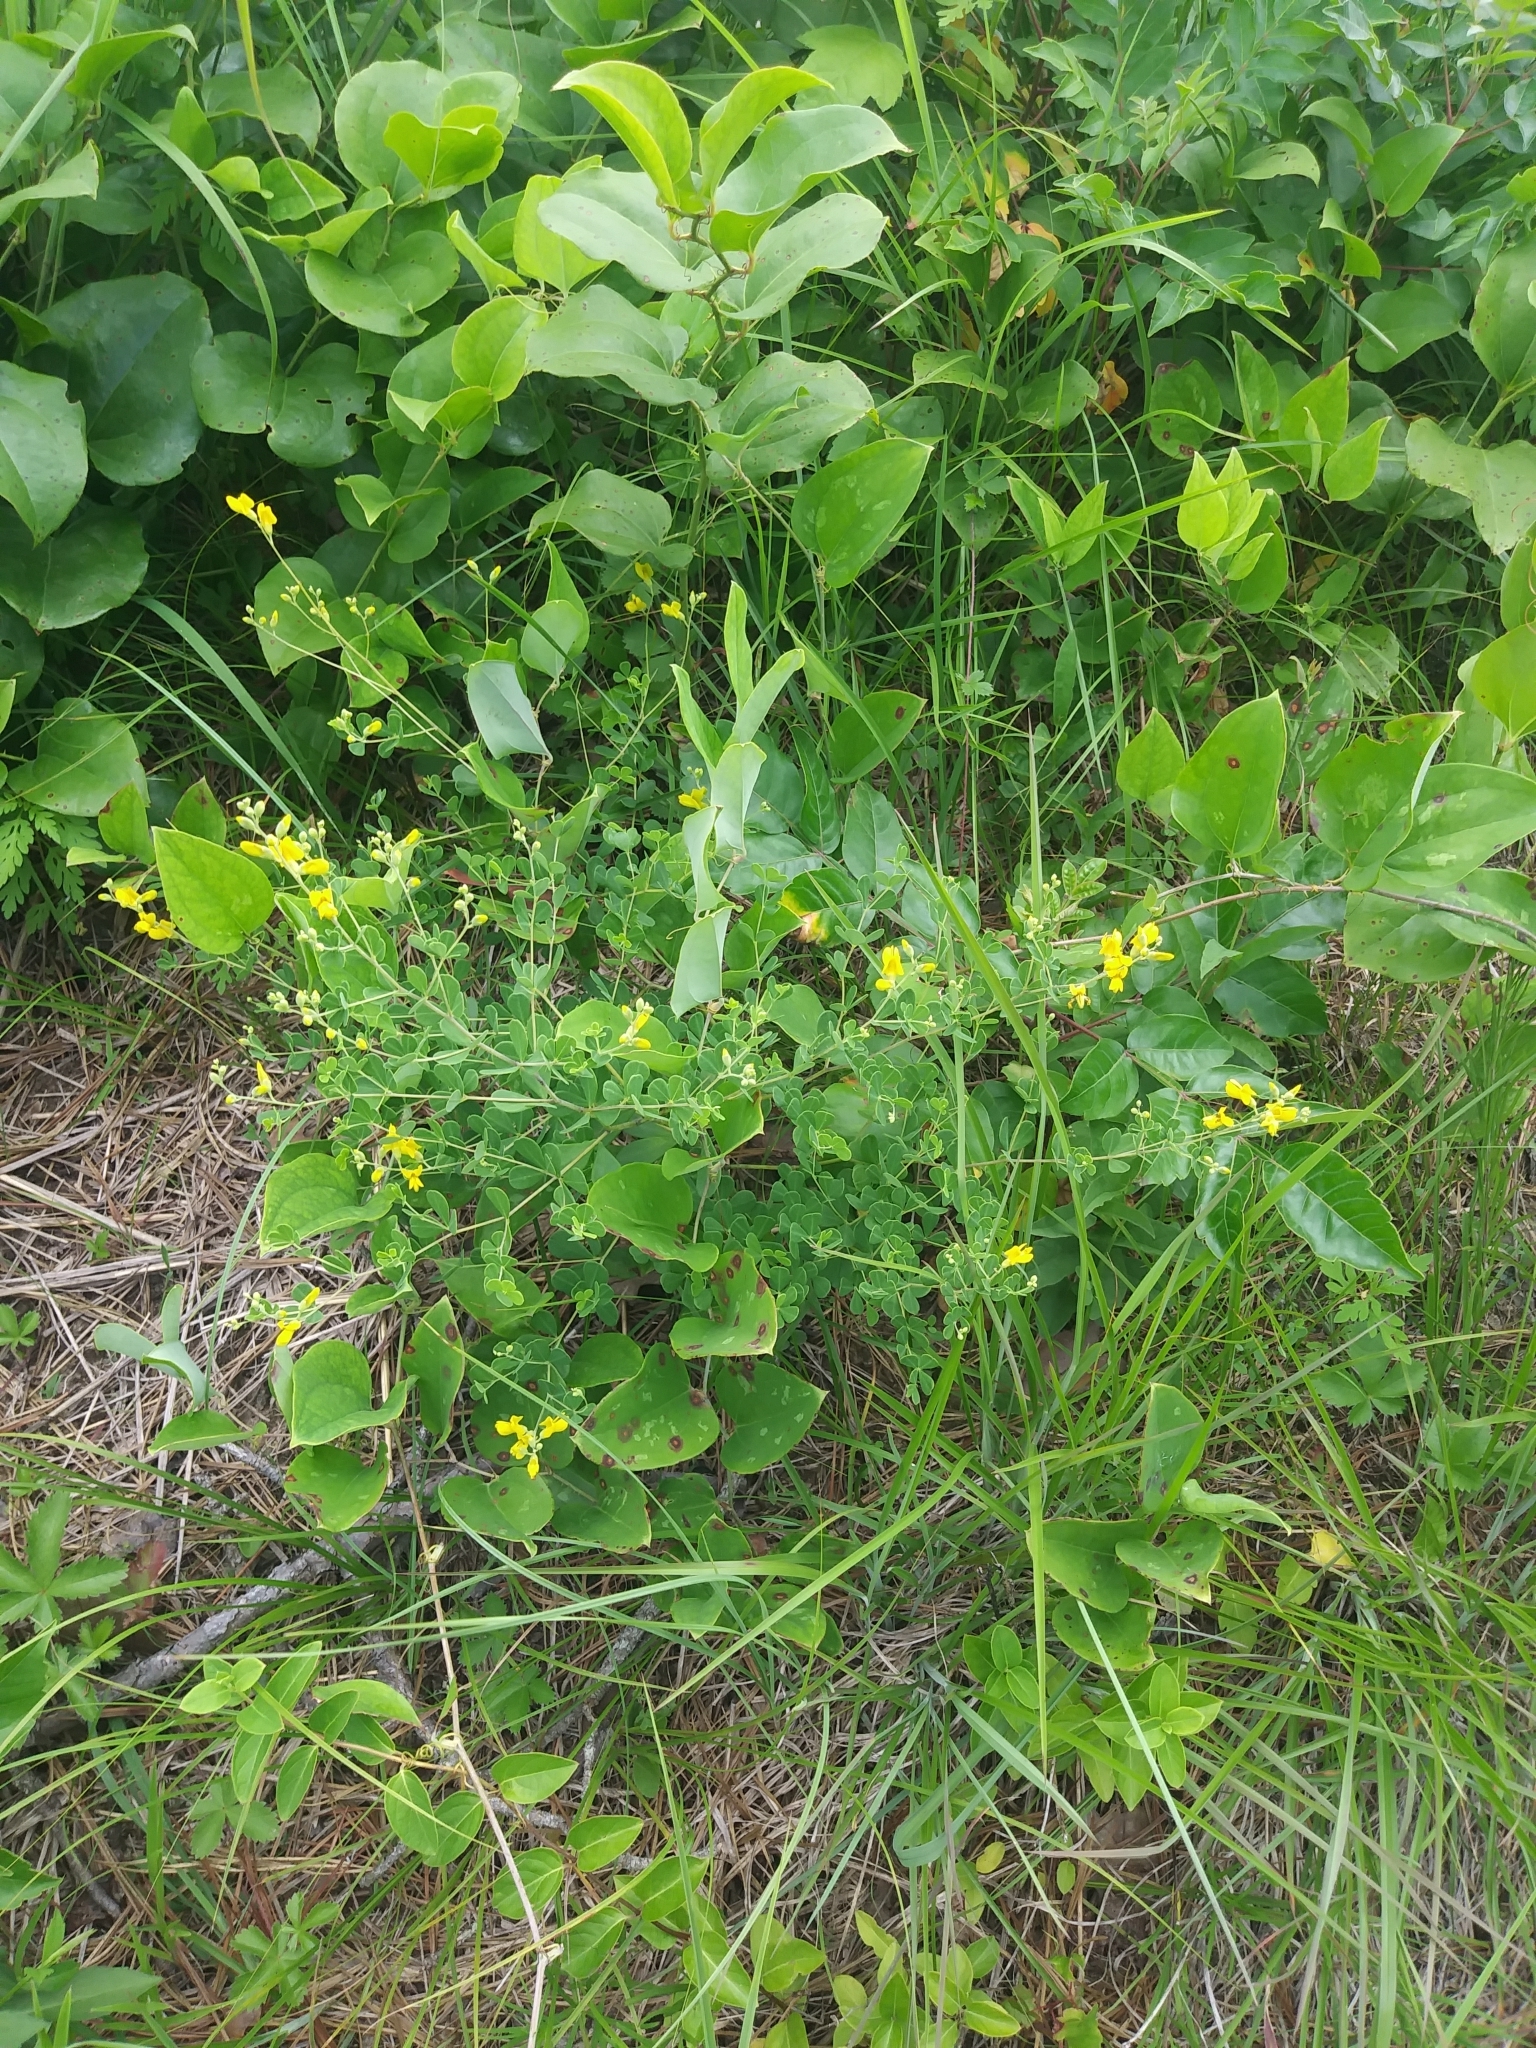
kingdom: Plantae
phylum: Tracheophyta
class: Magnoliopsida
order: Fabales
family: Fabaceae
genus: Baptisia
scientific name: Baptisia tinctoria
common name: Wild indigo
